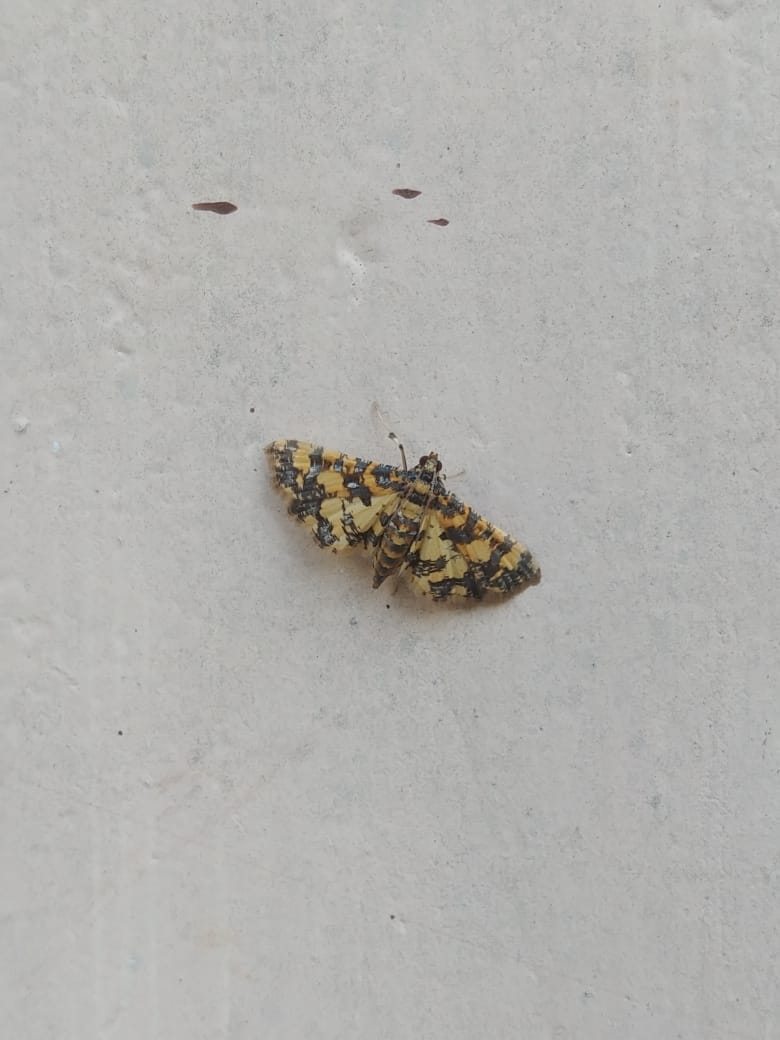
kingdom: Animalia
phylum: Arthropoda
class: Insecta
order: Lepidoptera
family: Crambidae
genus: Eurrhyparodes
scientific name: Eurrhyparodes tricoloralis
